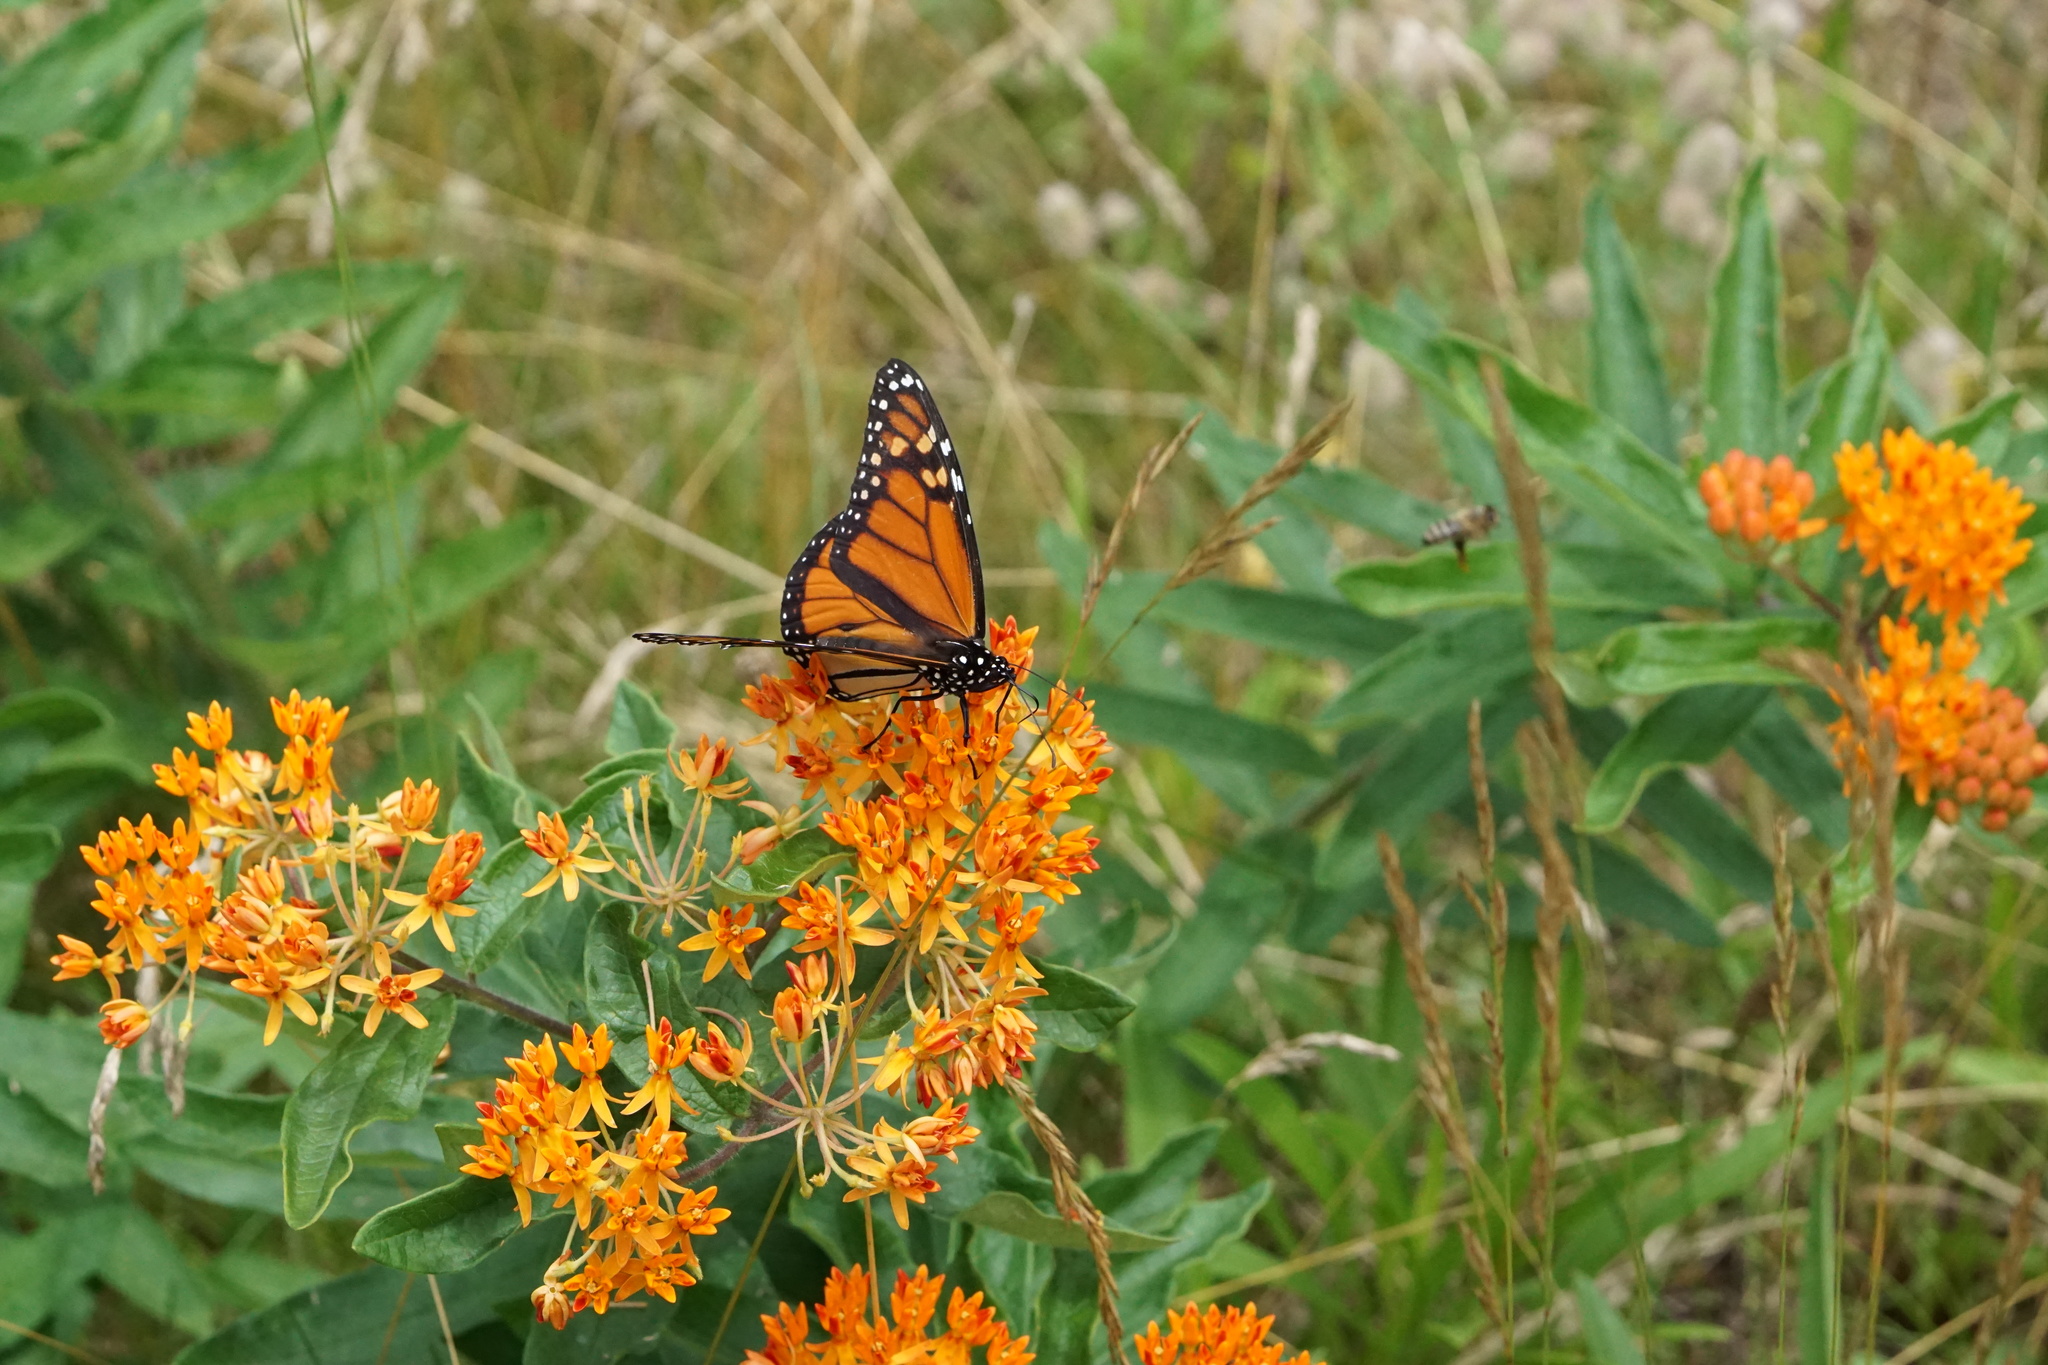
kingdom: Animalia
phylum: Arthropoda
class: Insecta
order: Lepidoptera
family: Nymphalidae
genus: Danaus
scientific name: Danaus plexippus
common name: Monarch
